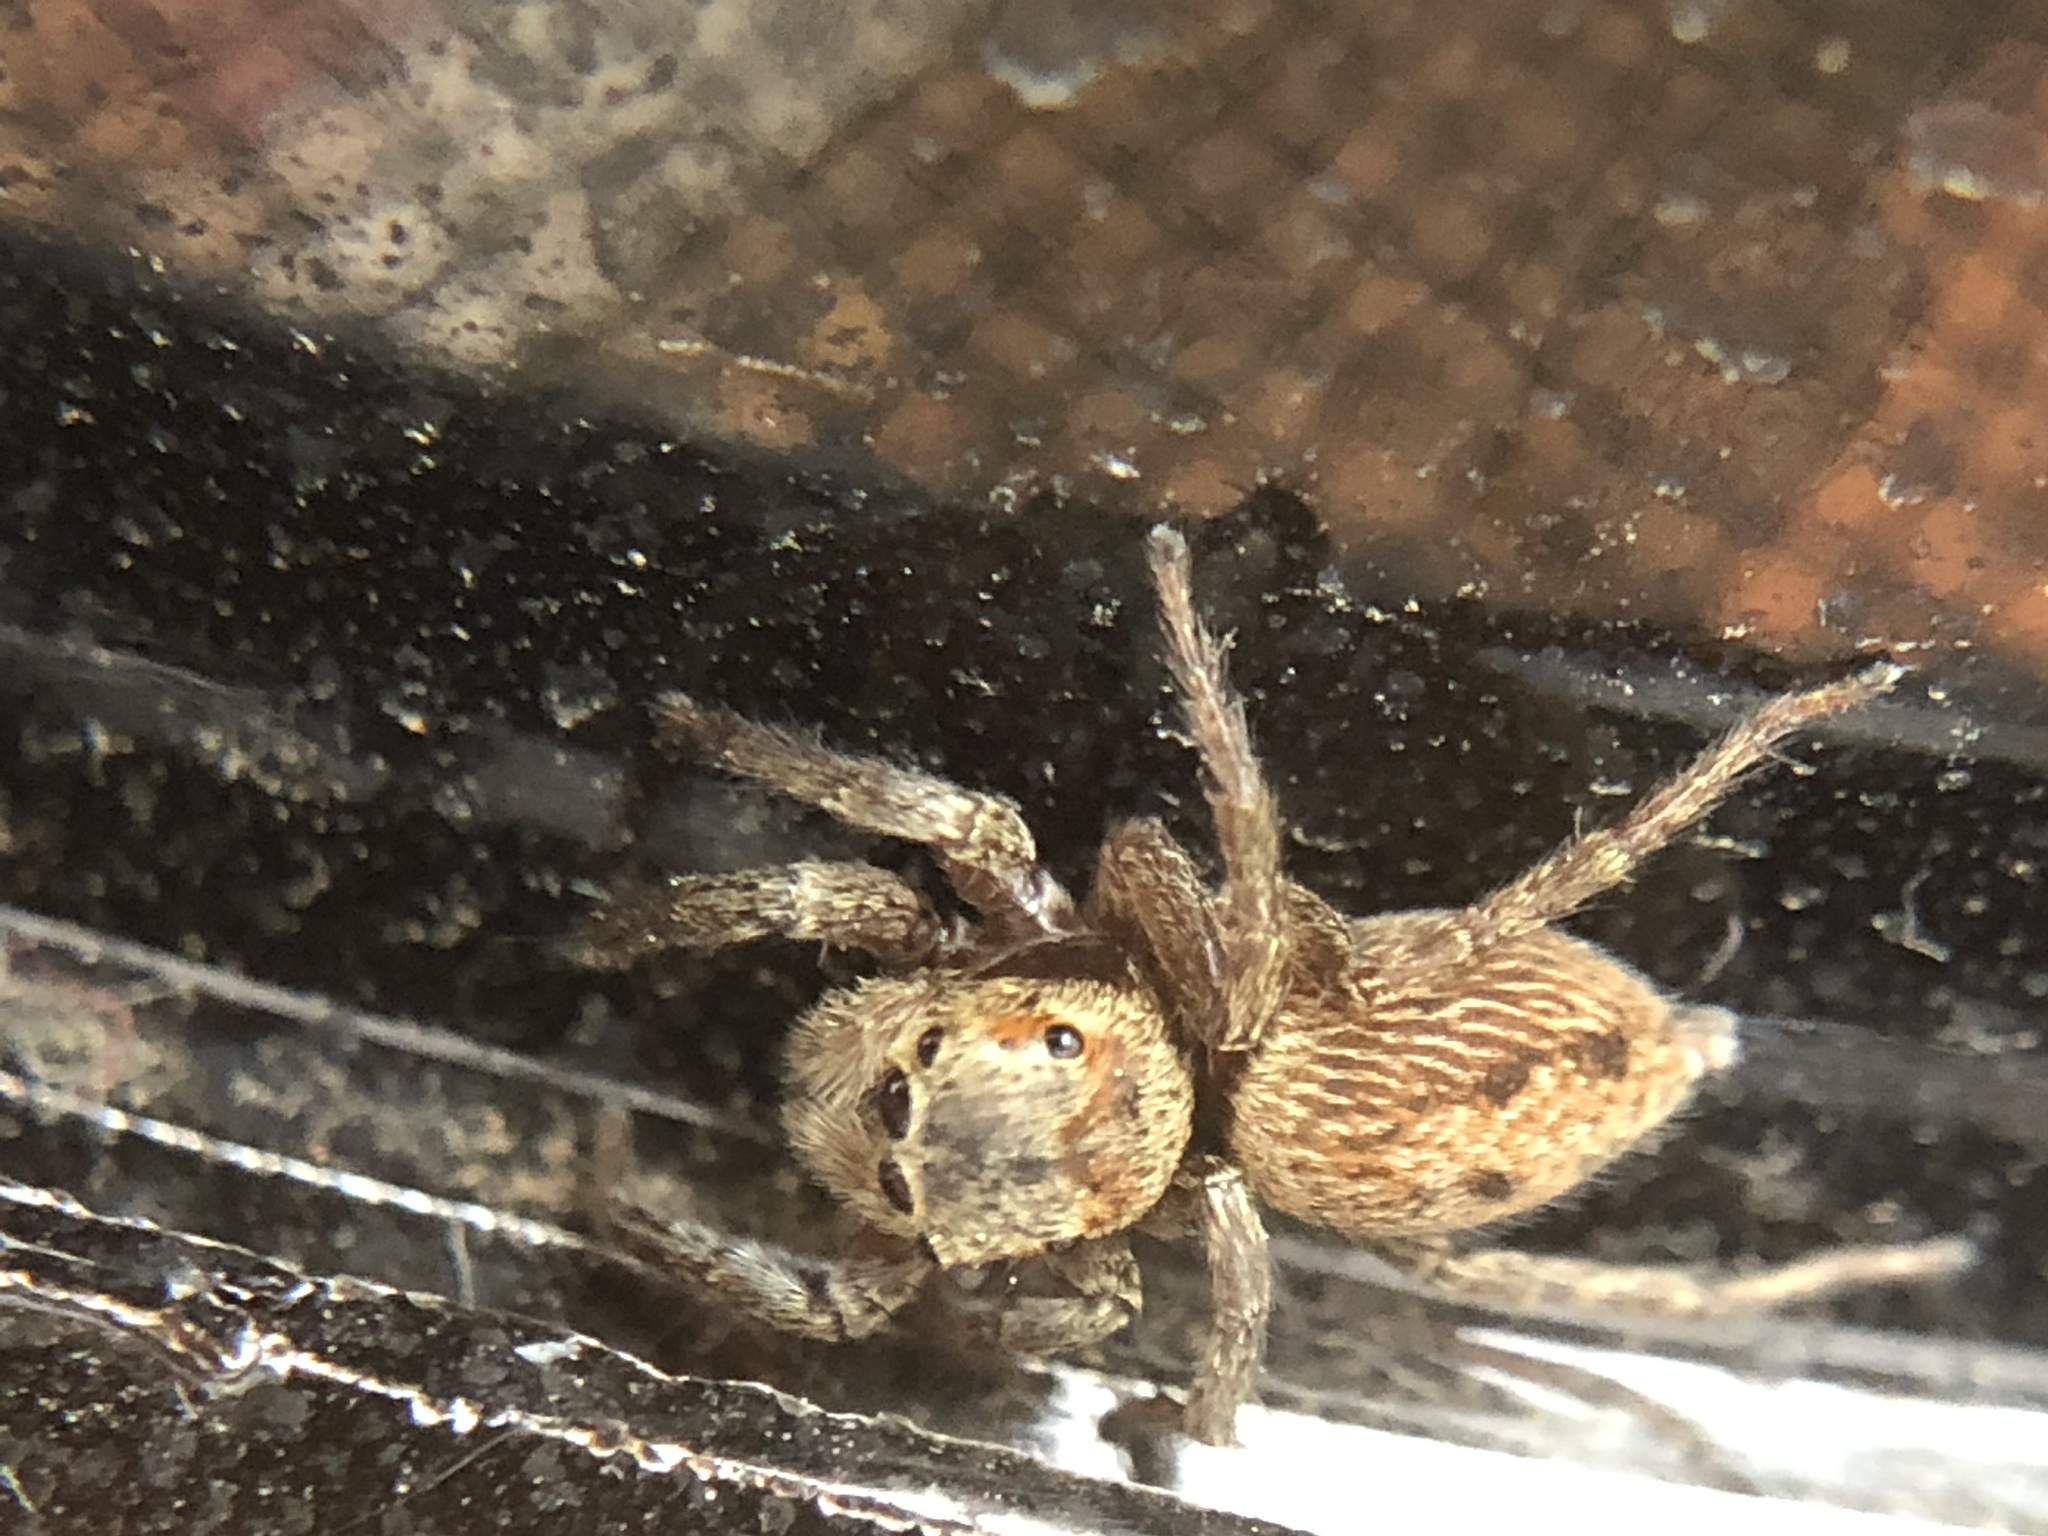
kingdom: Animalia
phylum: Arthropoda
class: Arachnida
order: Araneae
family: Salticidae
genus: Hasarius
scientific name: Hasarius adansoni
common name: Jumping spider
